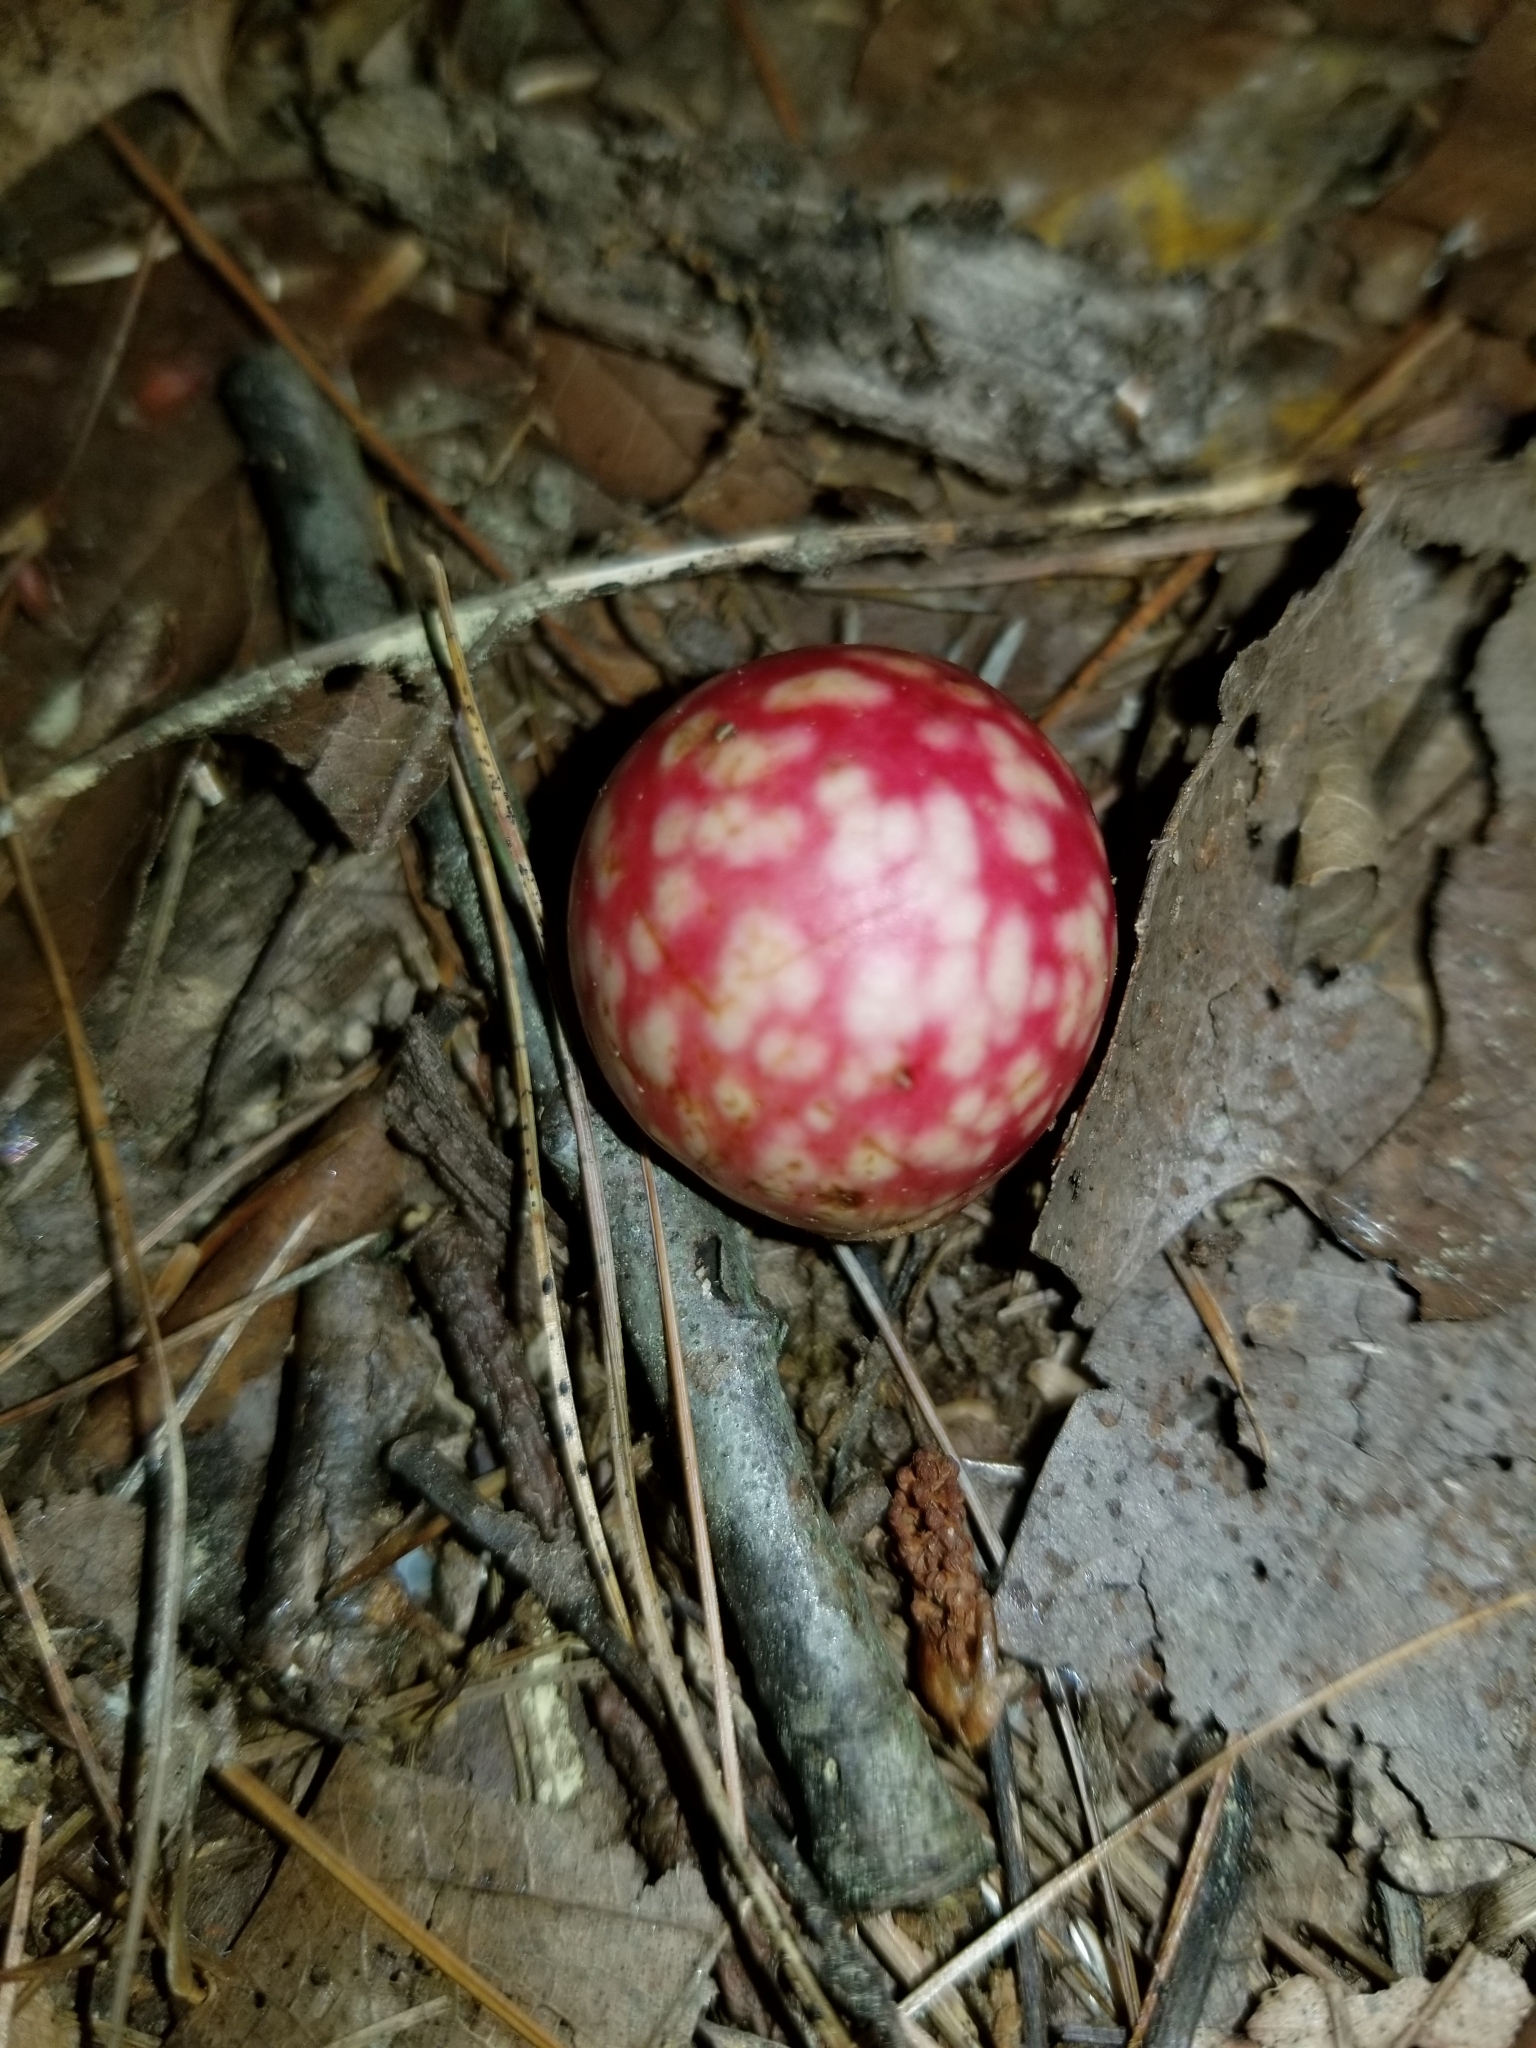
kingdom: Animalia
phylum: Arthropoda
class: Insecta
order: Hymenoptera
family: Cynipidae
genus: Amphibolips
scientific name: Amphibolips
